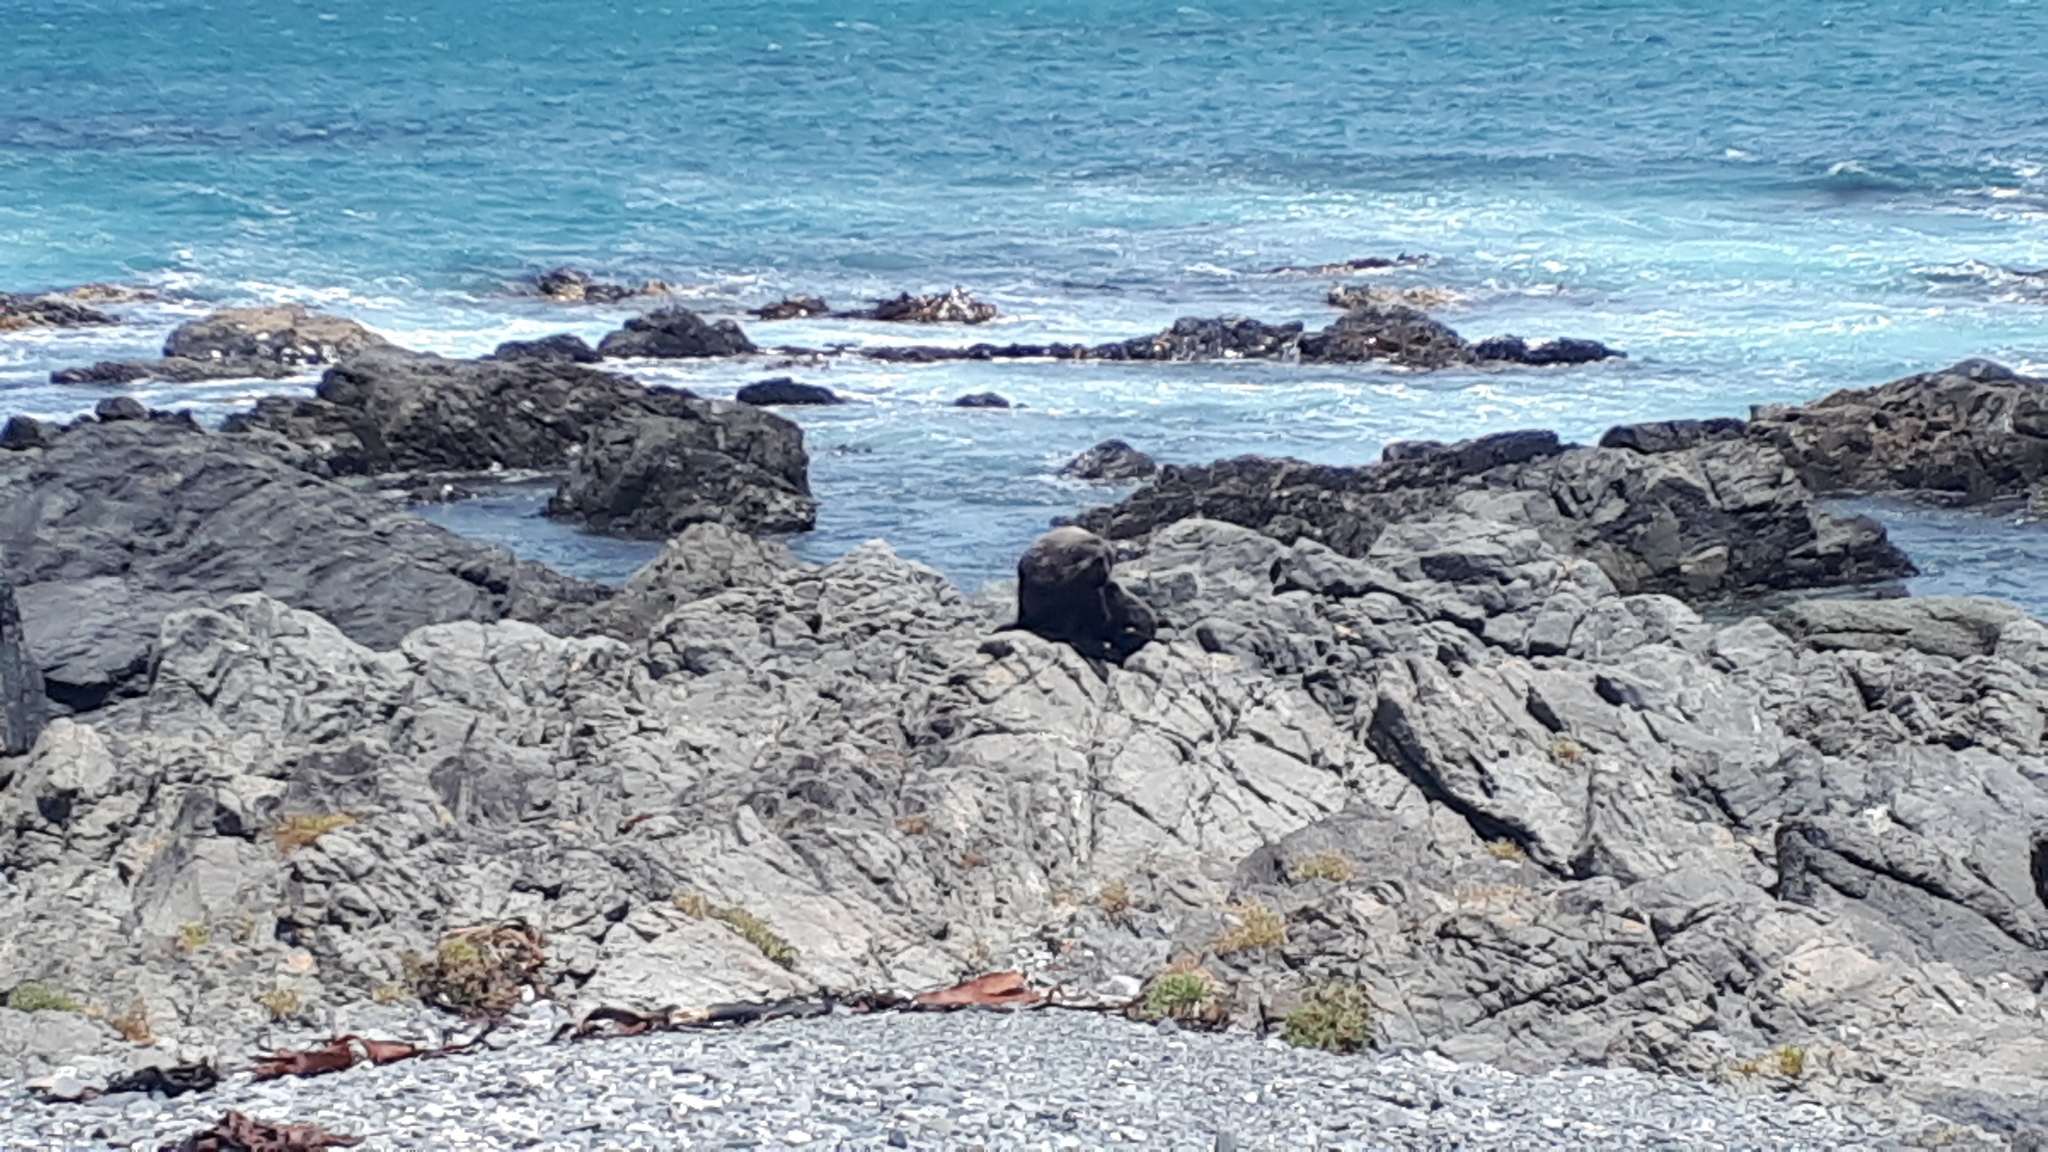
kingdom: Animalia
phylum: Chordata
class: Mammalia
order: Carnivora
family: Otariidae
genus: Arctocephalus
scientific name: Arctocephalus forsteri
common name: New zealand fur seal
